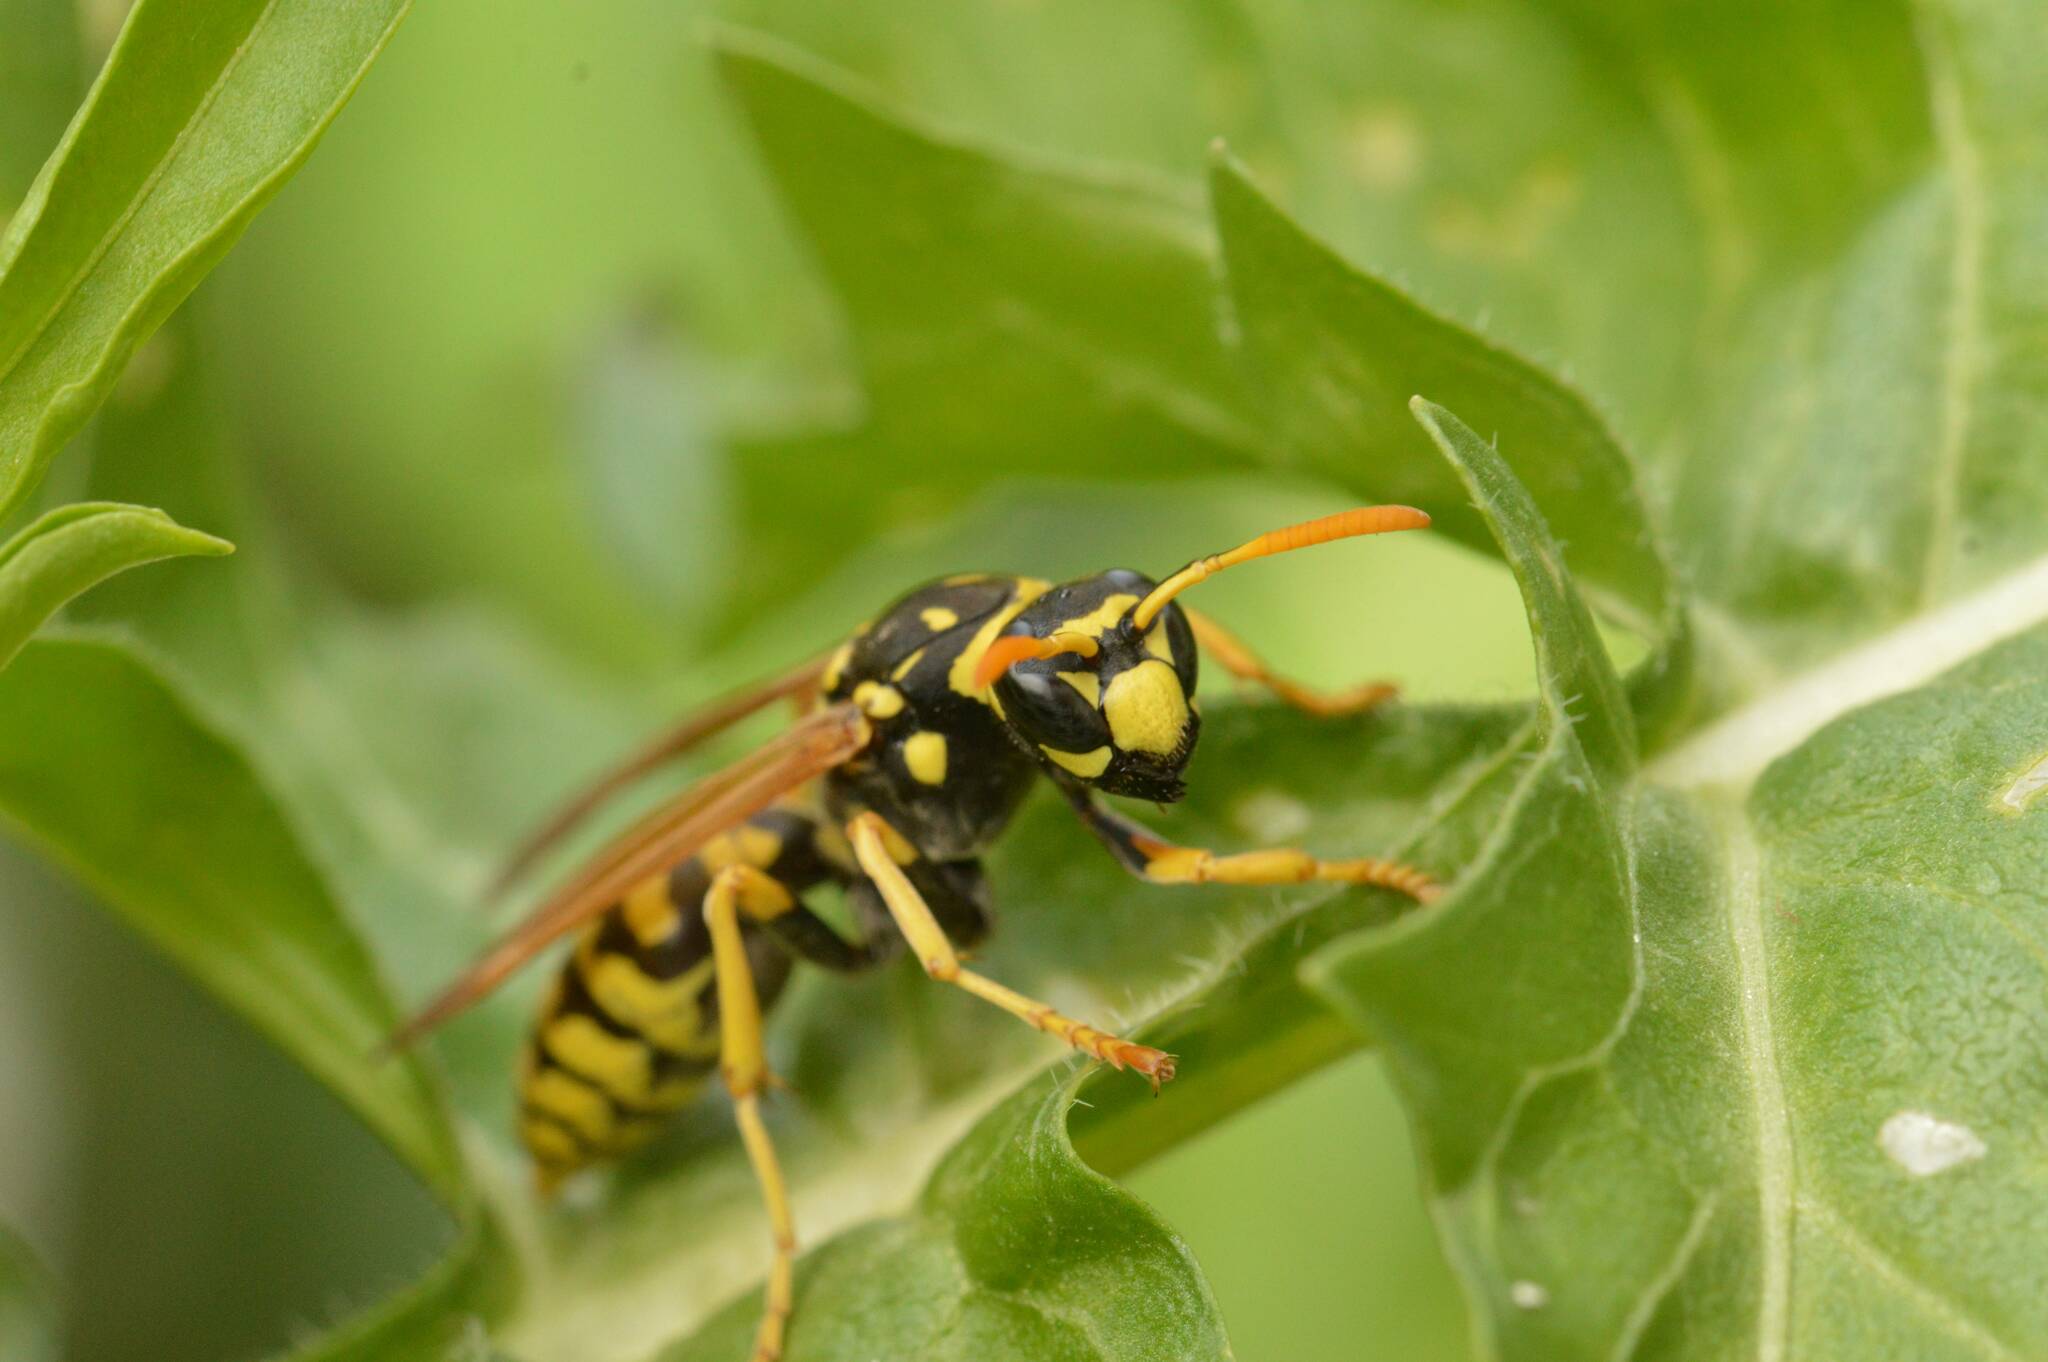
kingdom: Animalia
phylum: Arthropoda
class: Insecta
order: Hymenoptera
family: Eumenidae
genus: Polistes
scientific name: Polistes dominula
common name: Paper wasp
